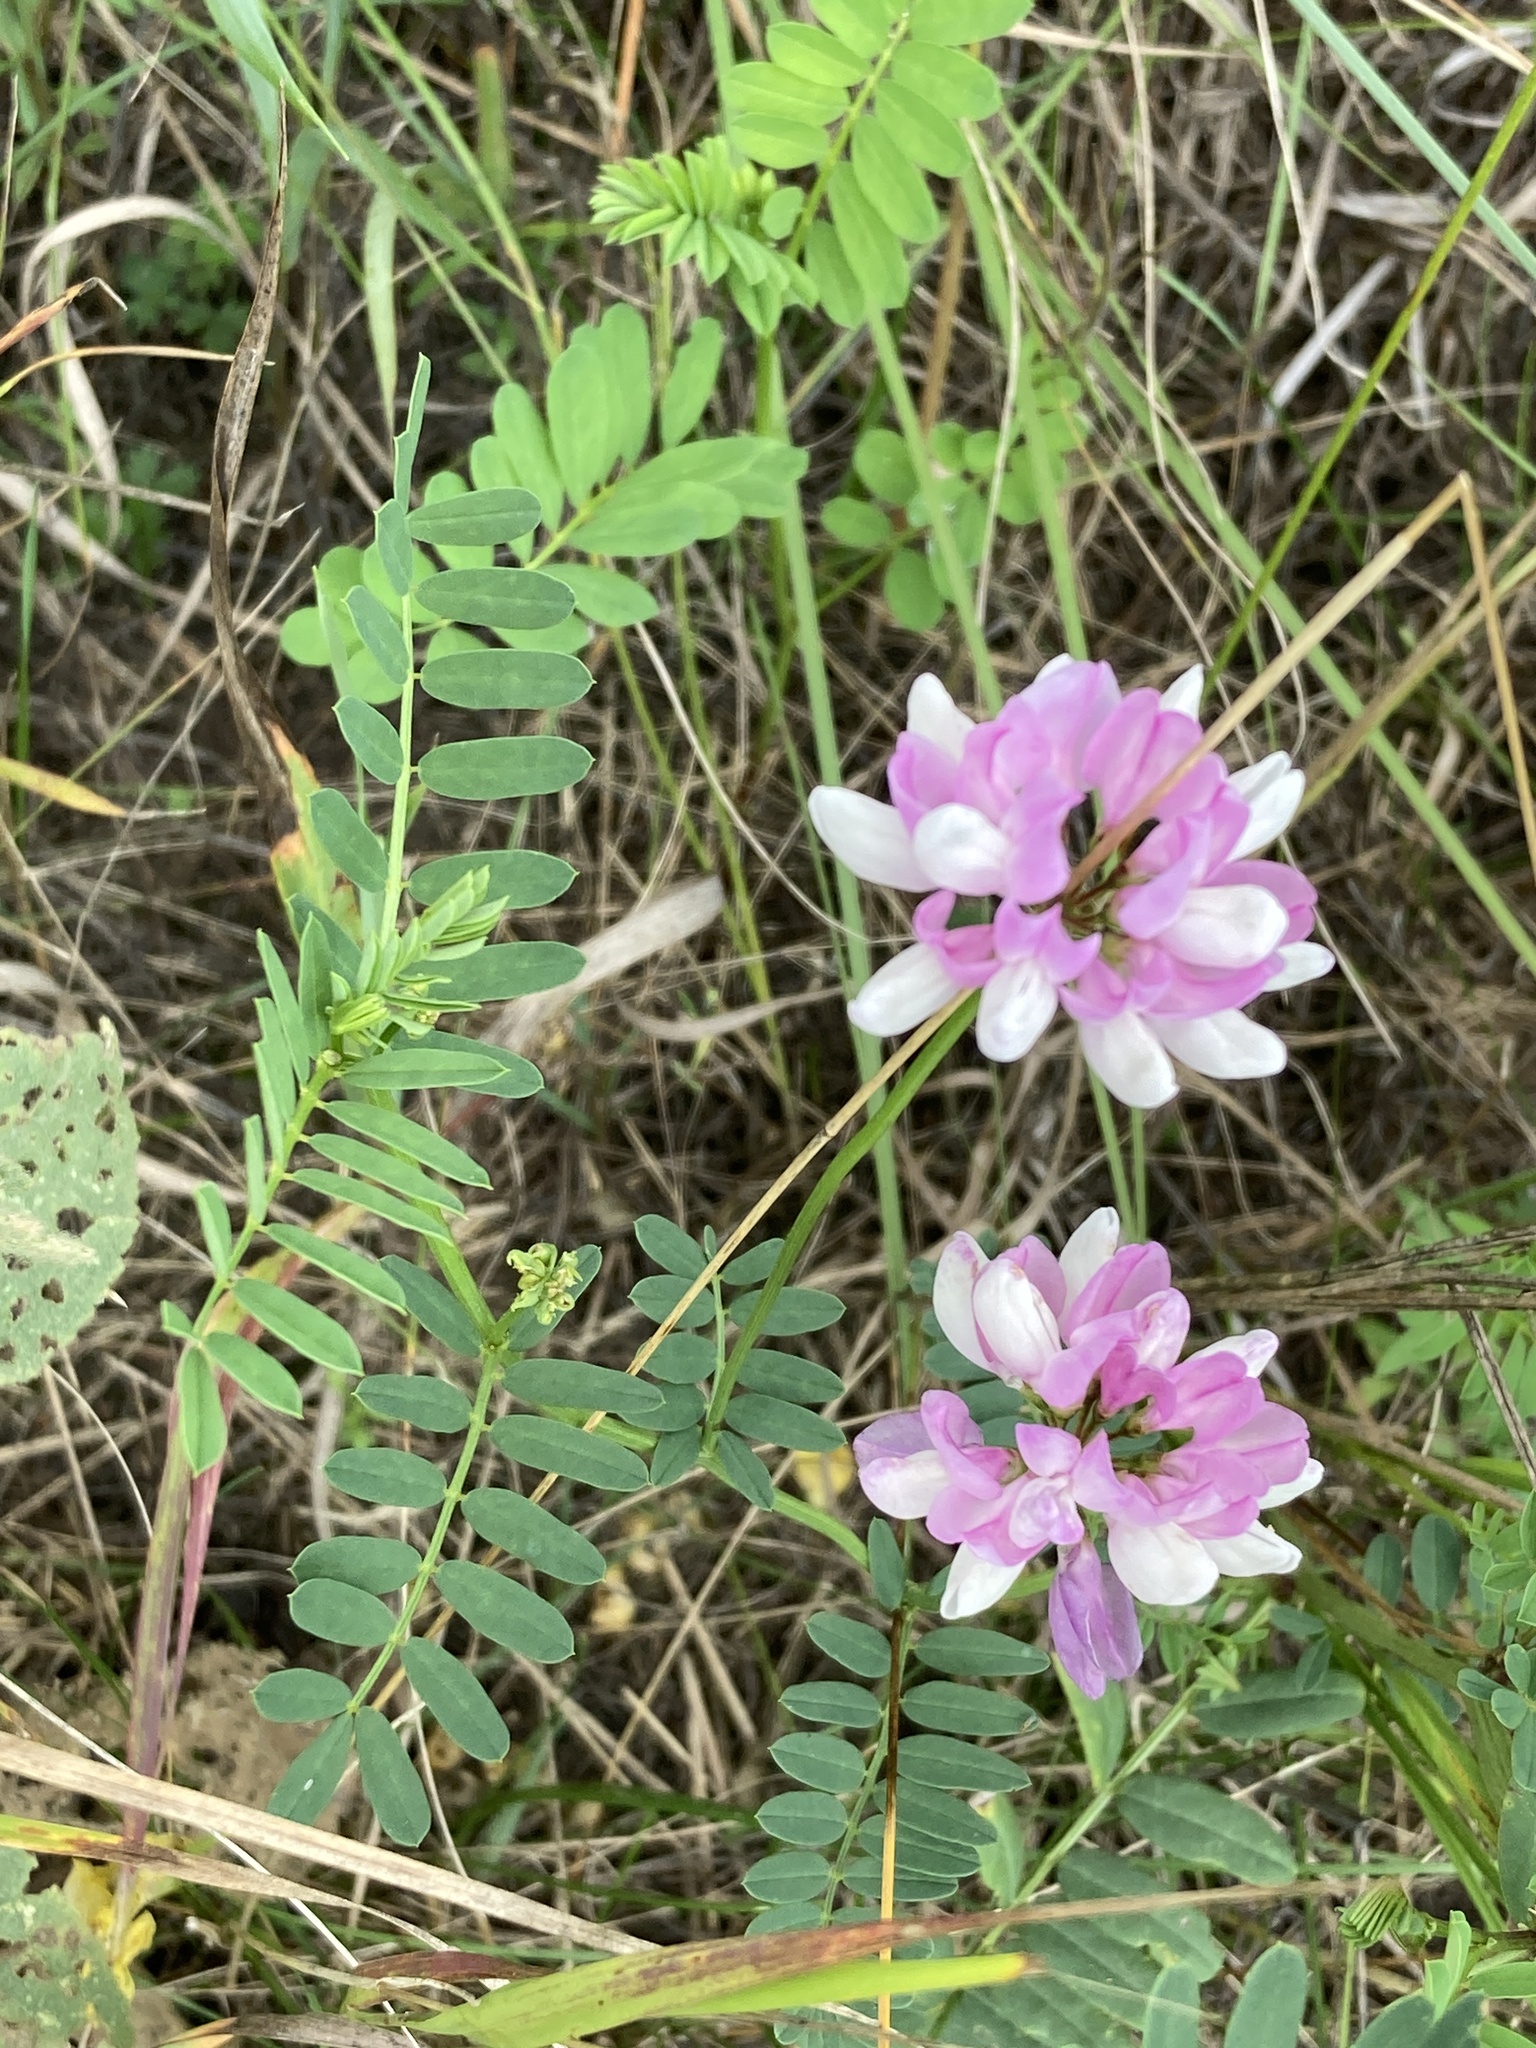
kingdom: Plantae
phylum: Tracheophyta
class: Magnoliopsida
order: Fabales
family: Fabaceae
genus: Coronilla
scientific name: Coronilla varia
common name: Crownvetch
